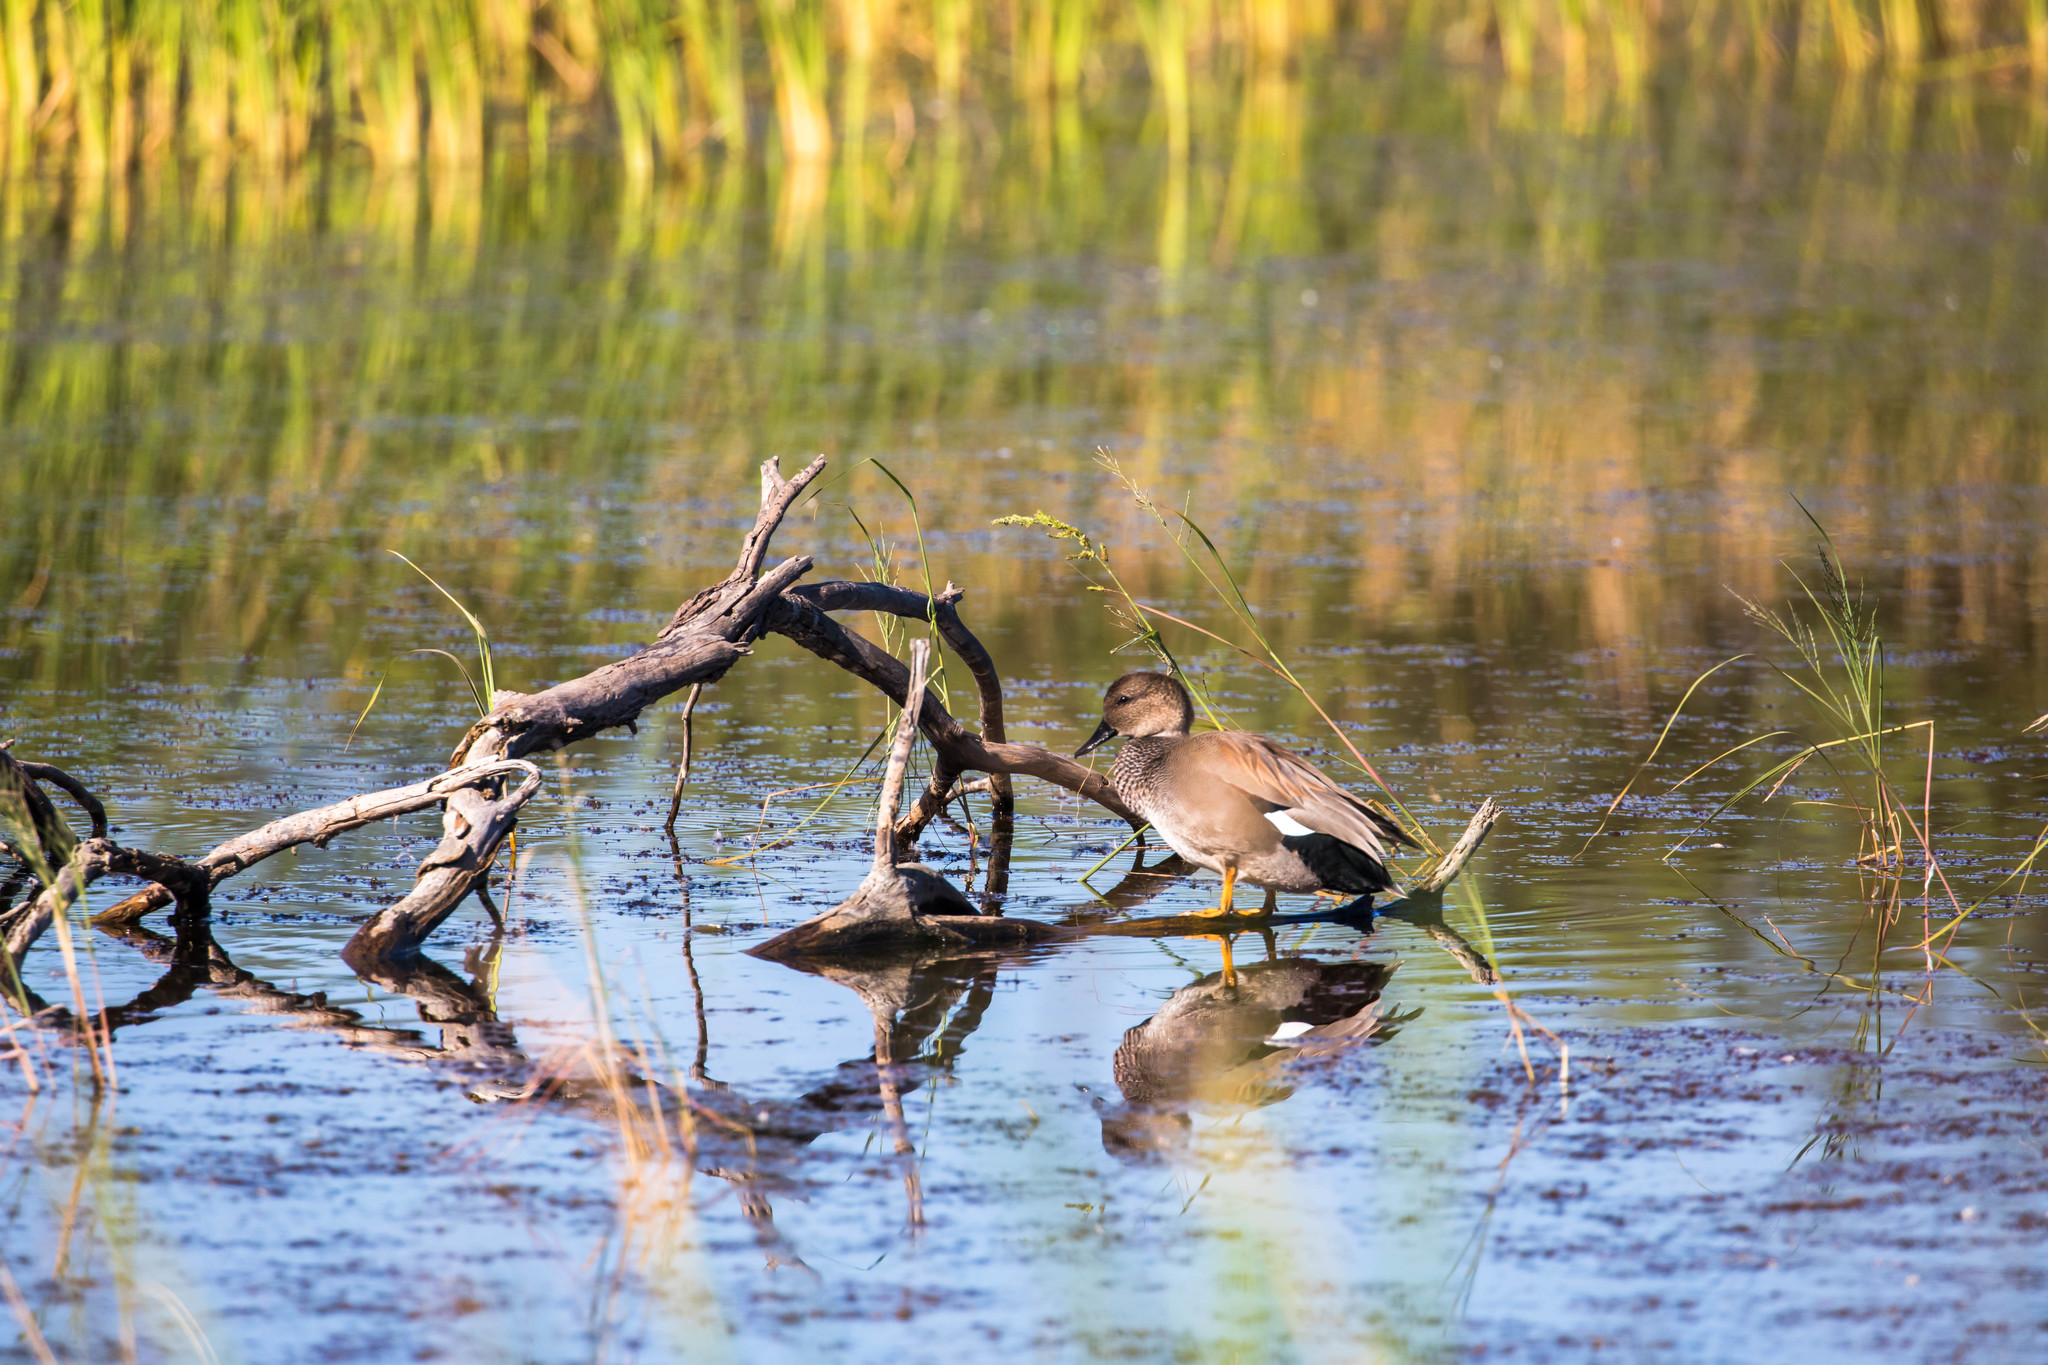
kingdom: Animalia
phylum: Chordata
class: Aves
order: Anseriformes
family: Anatidae
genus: Mareca
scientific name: Mareca strepera
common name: Gadwall
